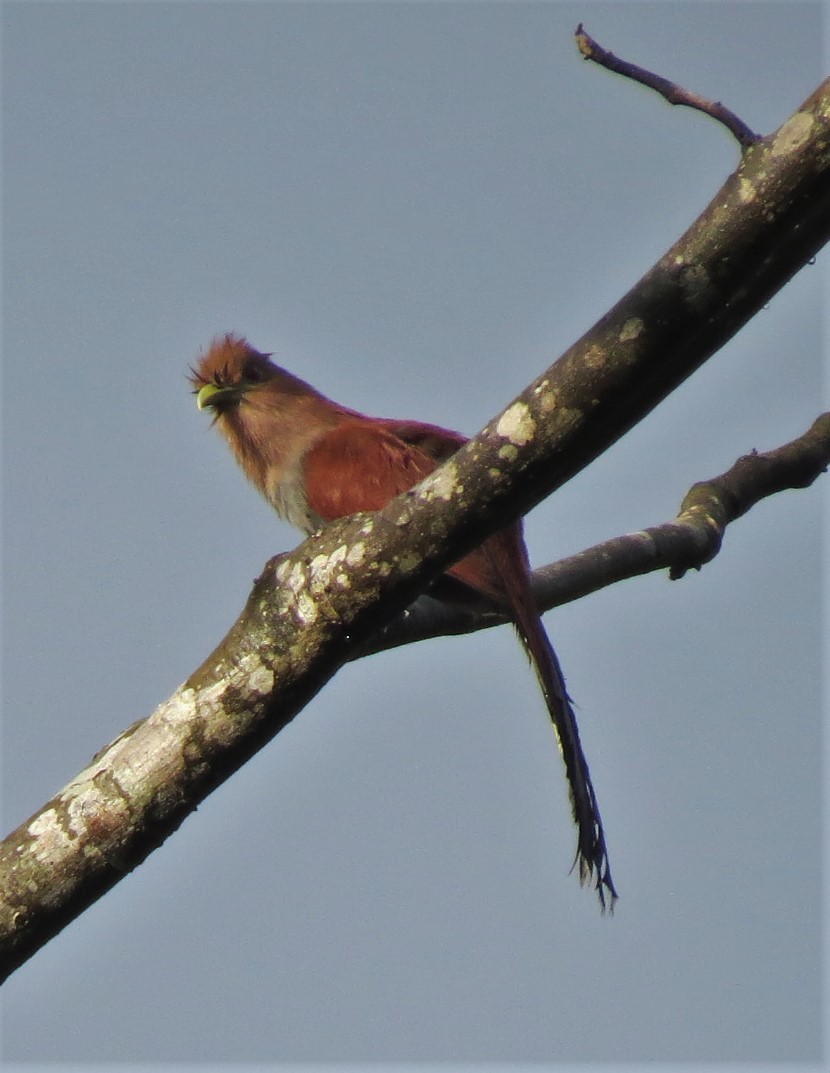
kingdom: Animalia
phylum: Chordata
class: Aves
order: Cuculiformes
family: Cuculidae
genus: Piaya
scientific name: Piaya cayana
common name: Squirrel cuckoo
